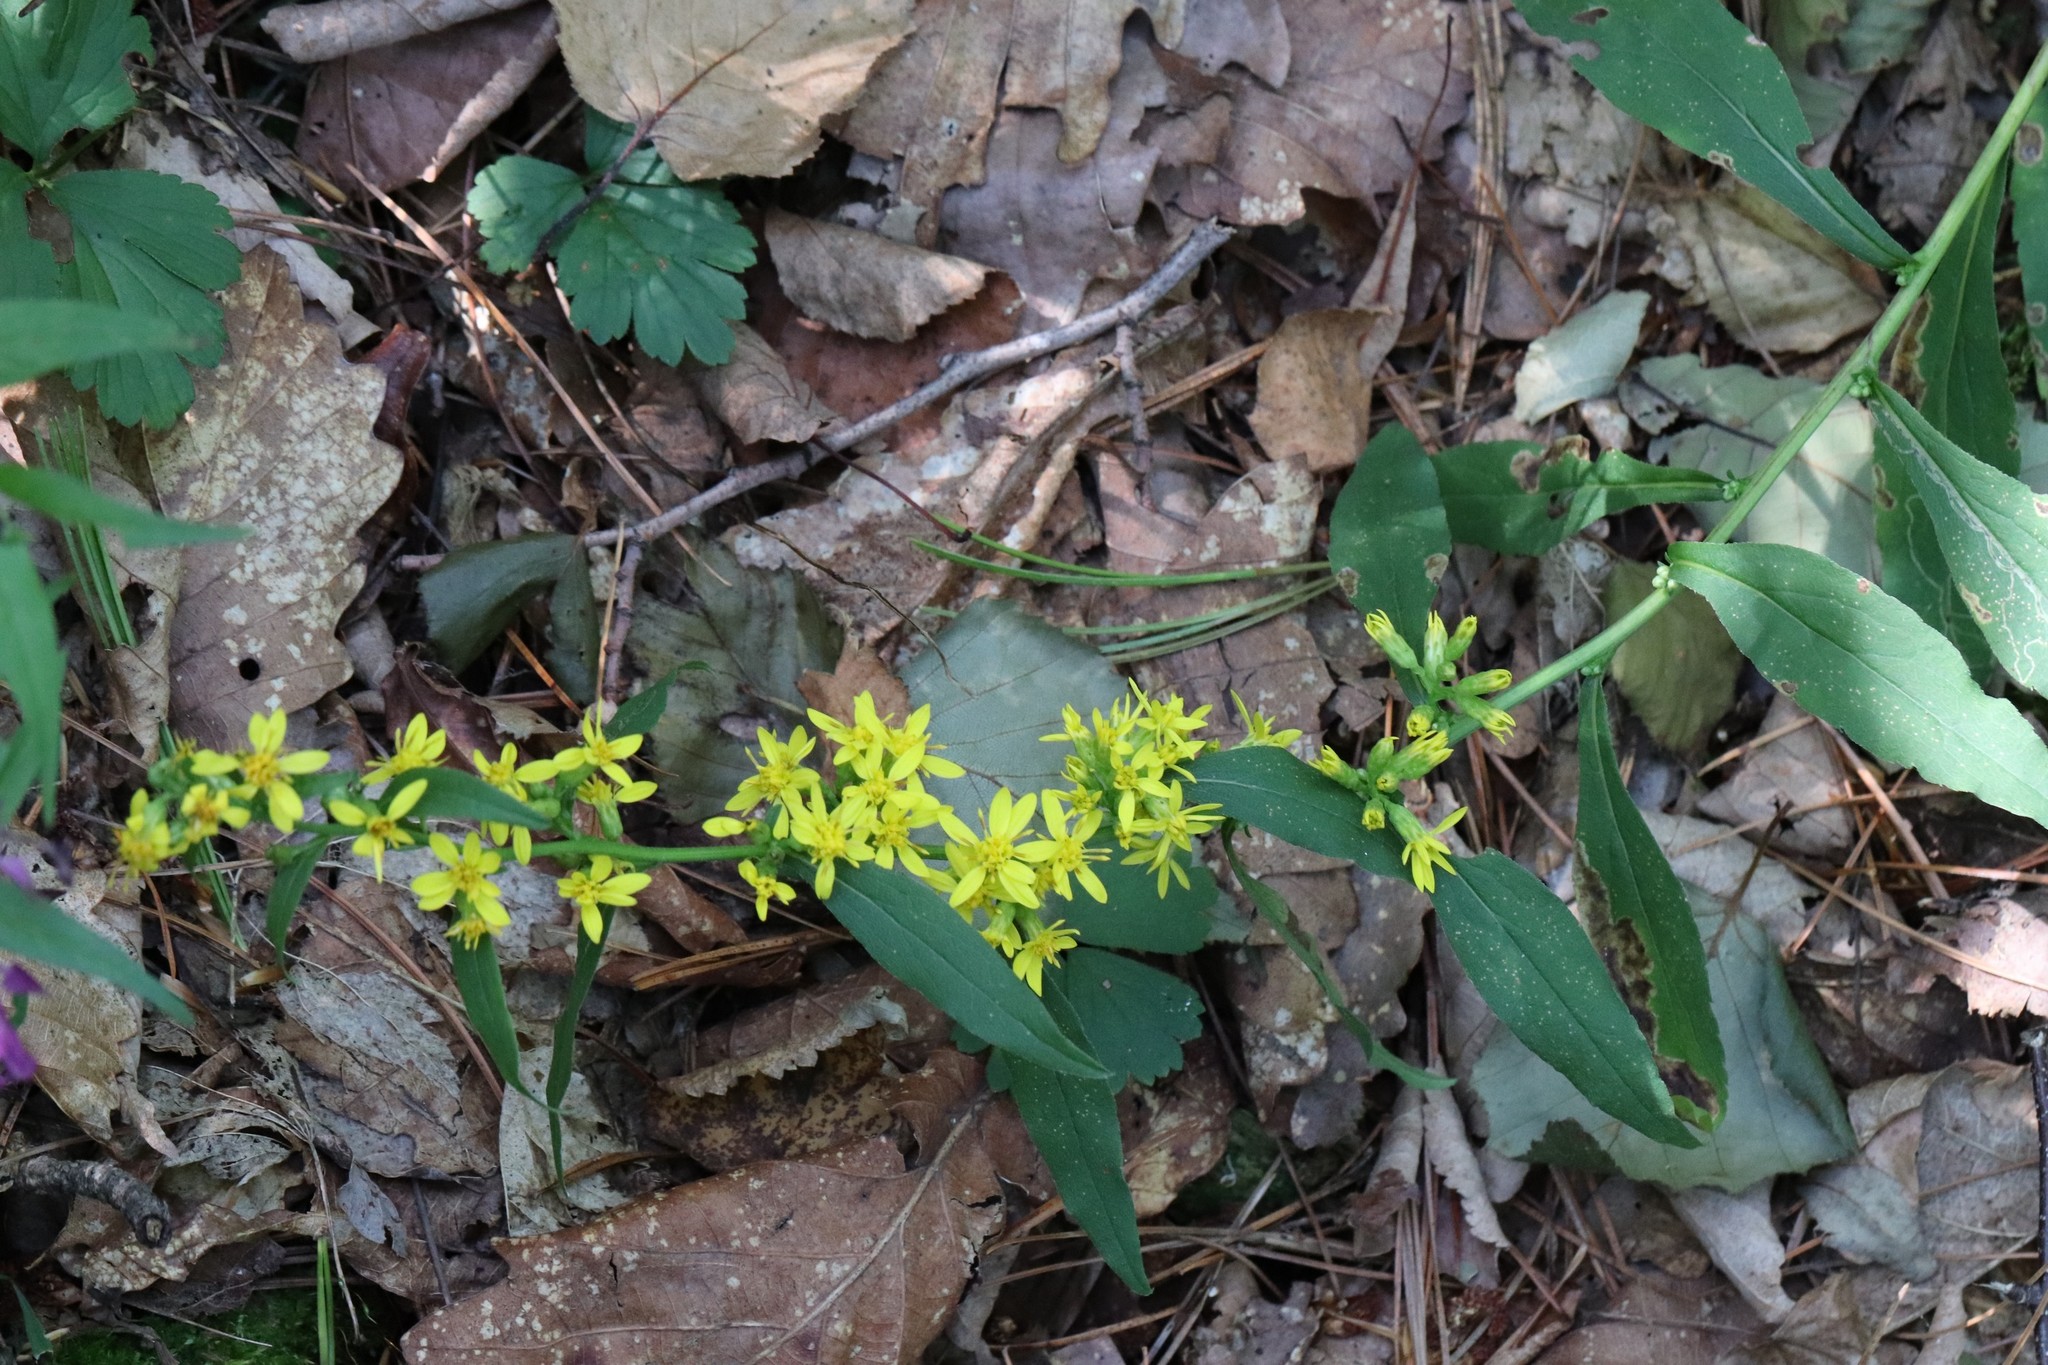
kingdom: Plantae
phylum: Tracheophyta
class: Magnoliopsida
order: Asterales
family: Asteraceae
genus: Solidago
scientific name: Solidago decurrens
